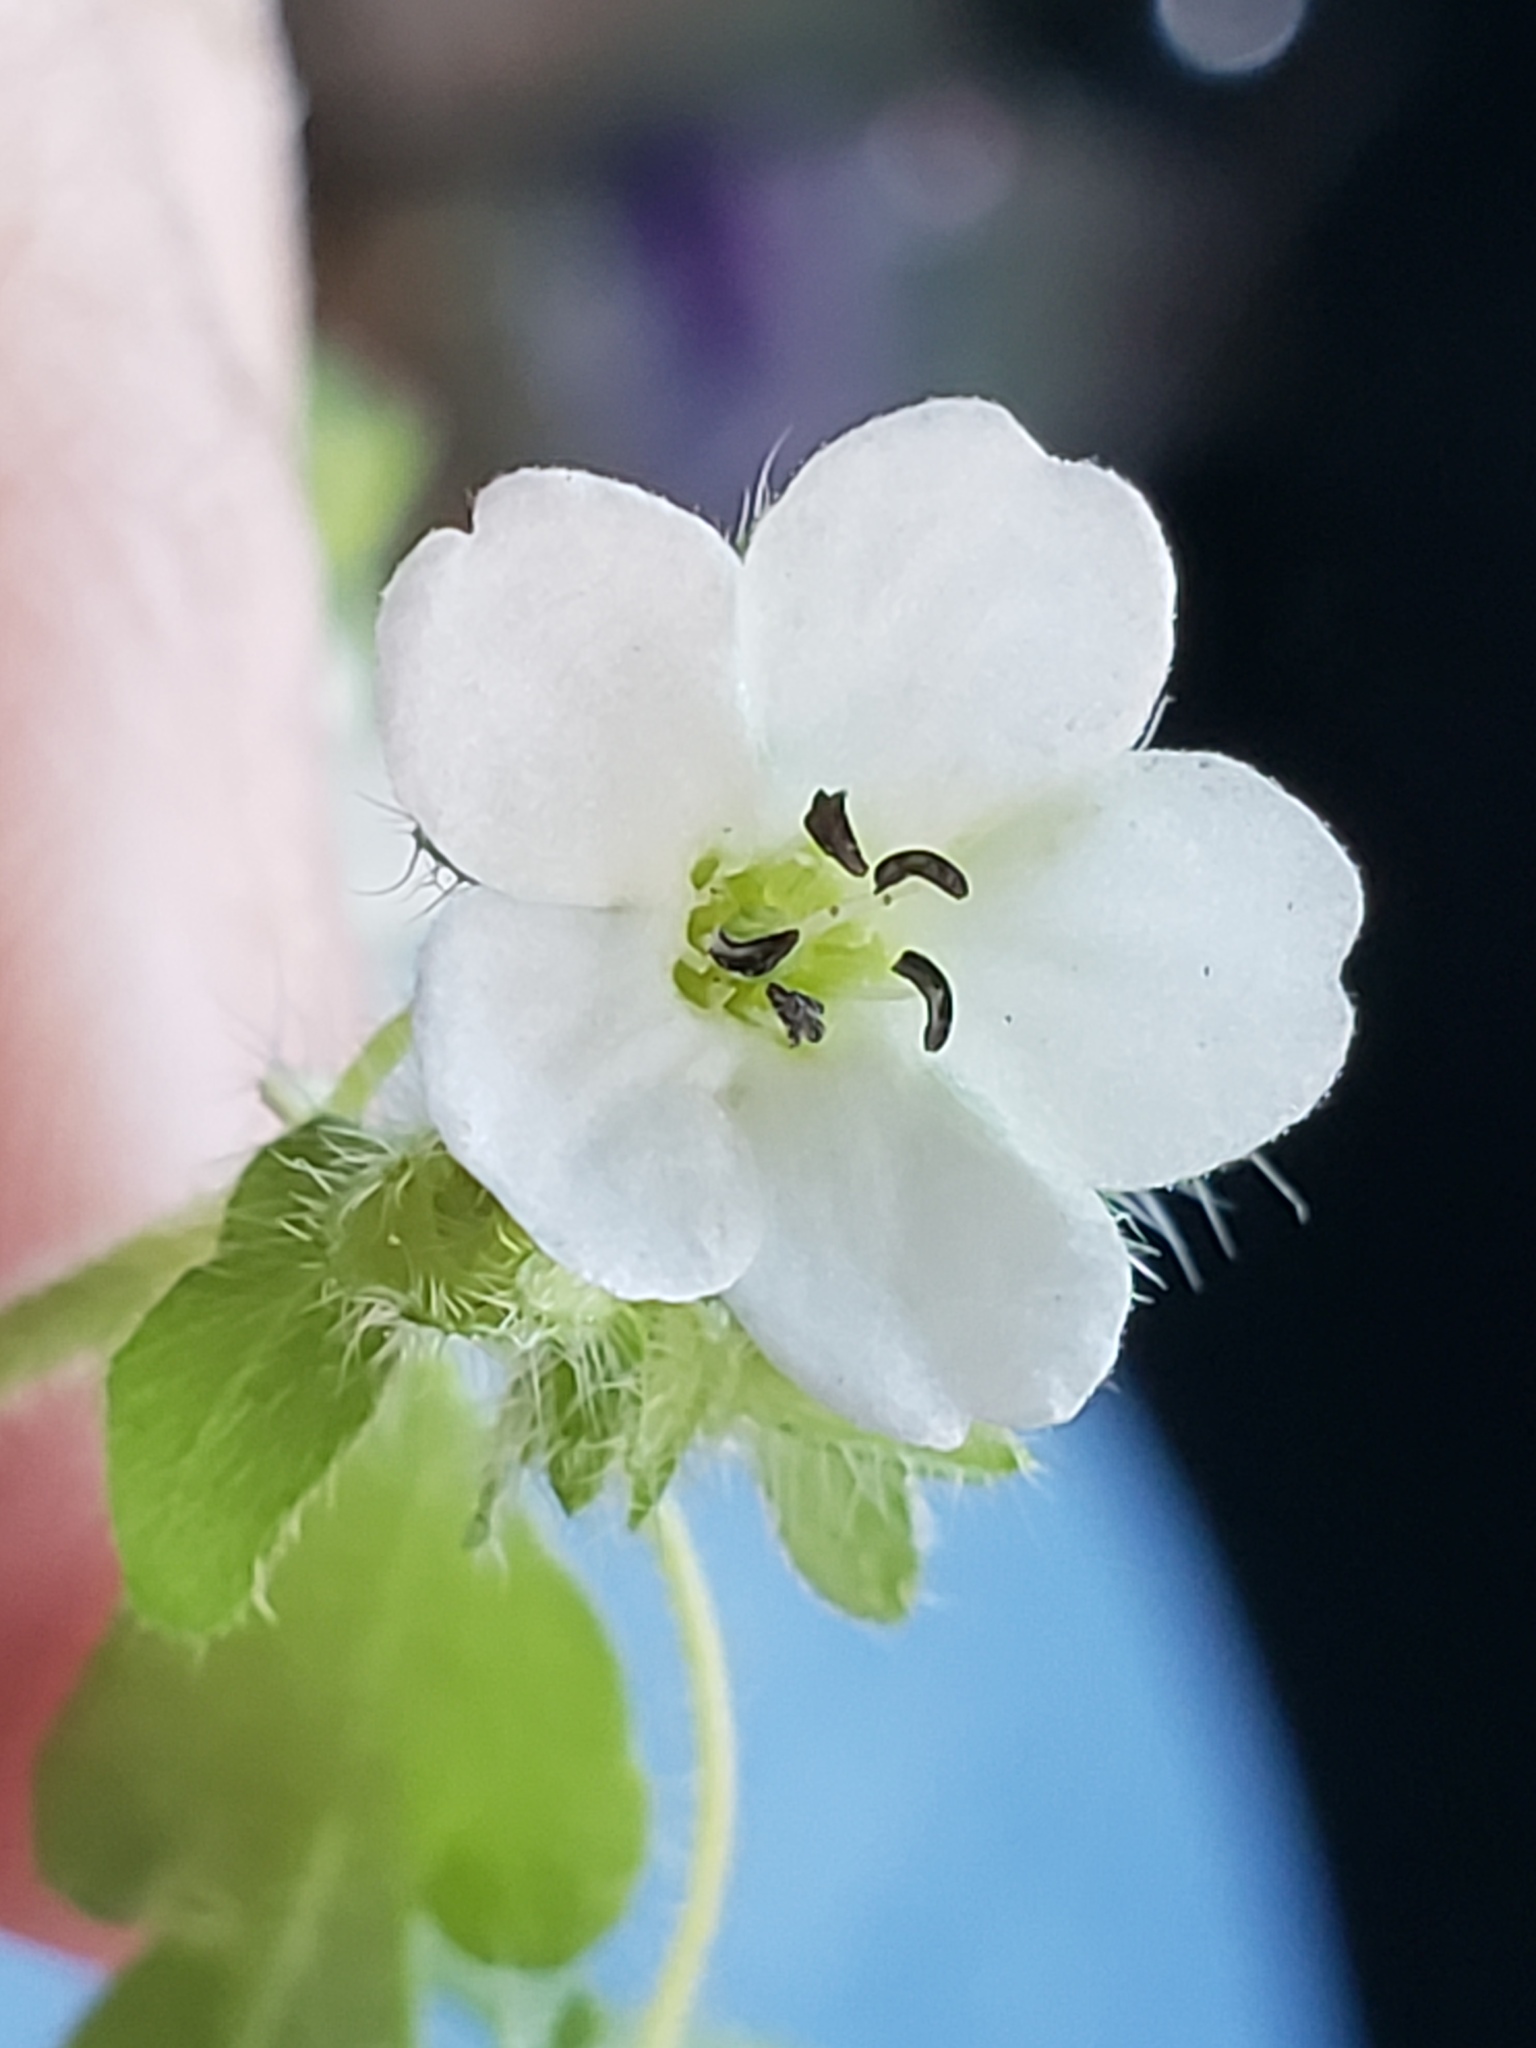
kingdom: Plantae
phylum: Tracheophyta
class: Magnoliopsida
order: Boraginales
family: Hydrophyllaceae
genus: Nemophila
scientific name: Nemophila heterophylla
